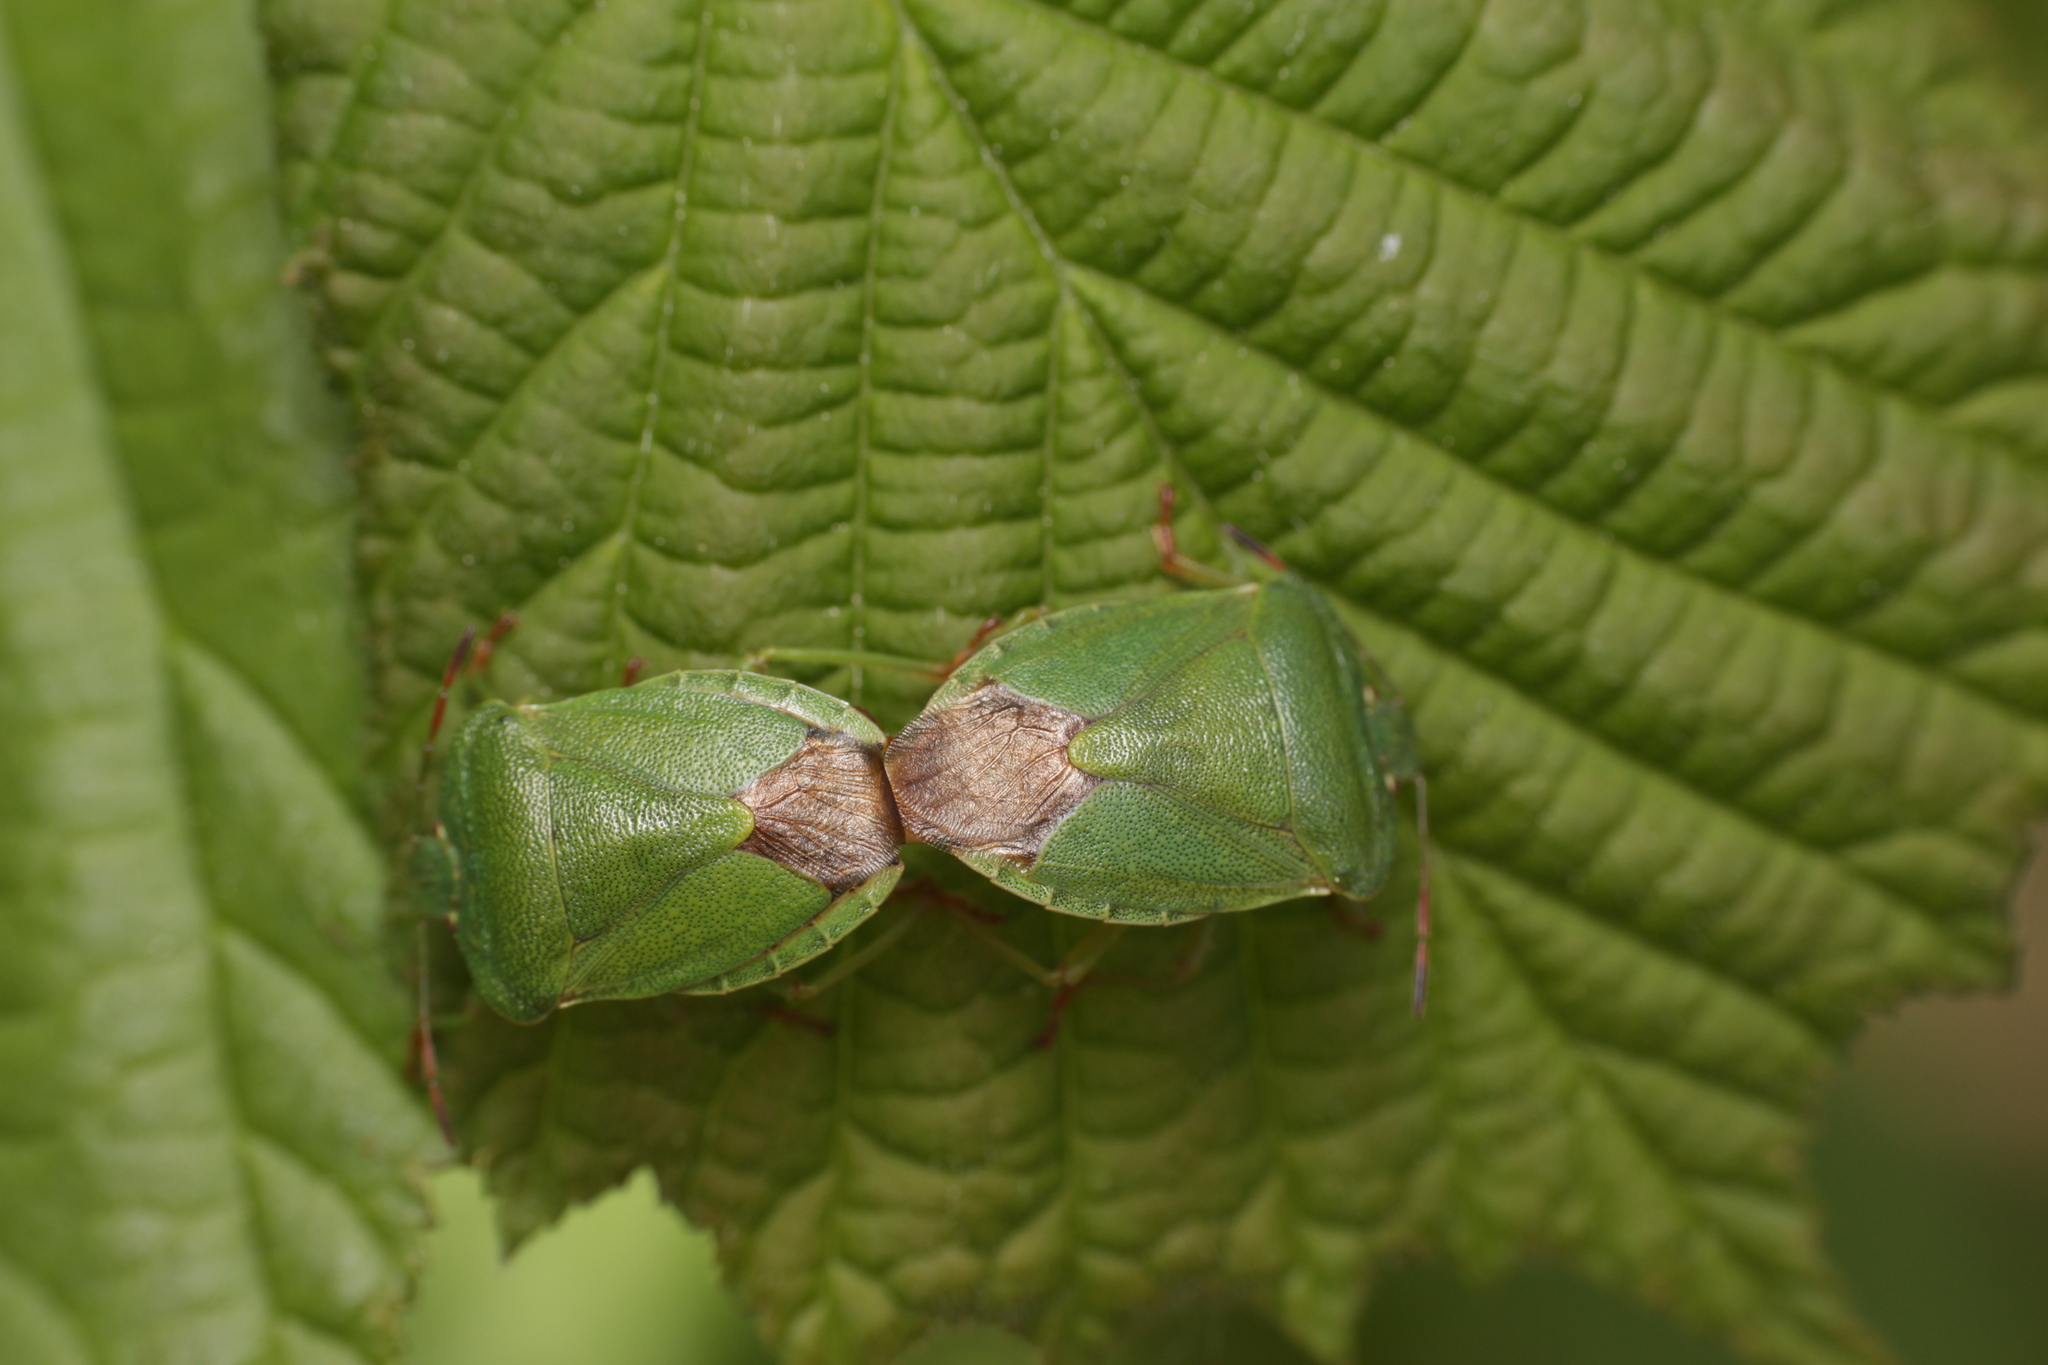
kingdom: Animalia
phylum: Arthropoda
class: Insecta
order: Hemiptera
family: Pentatomidae
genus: Palomena
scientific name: Palomena prasina
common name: Green shieldbug
